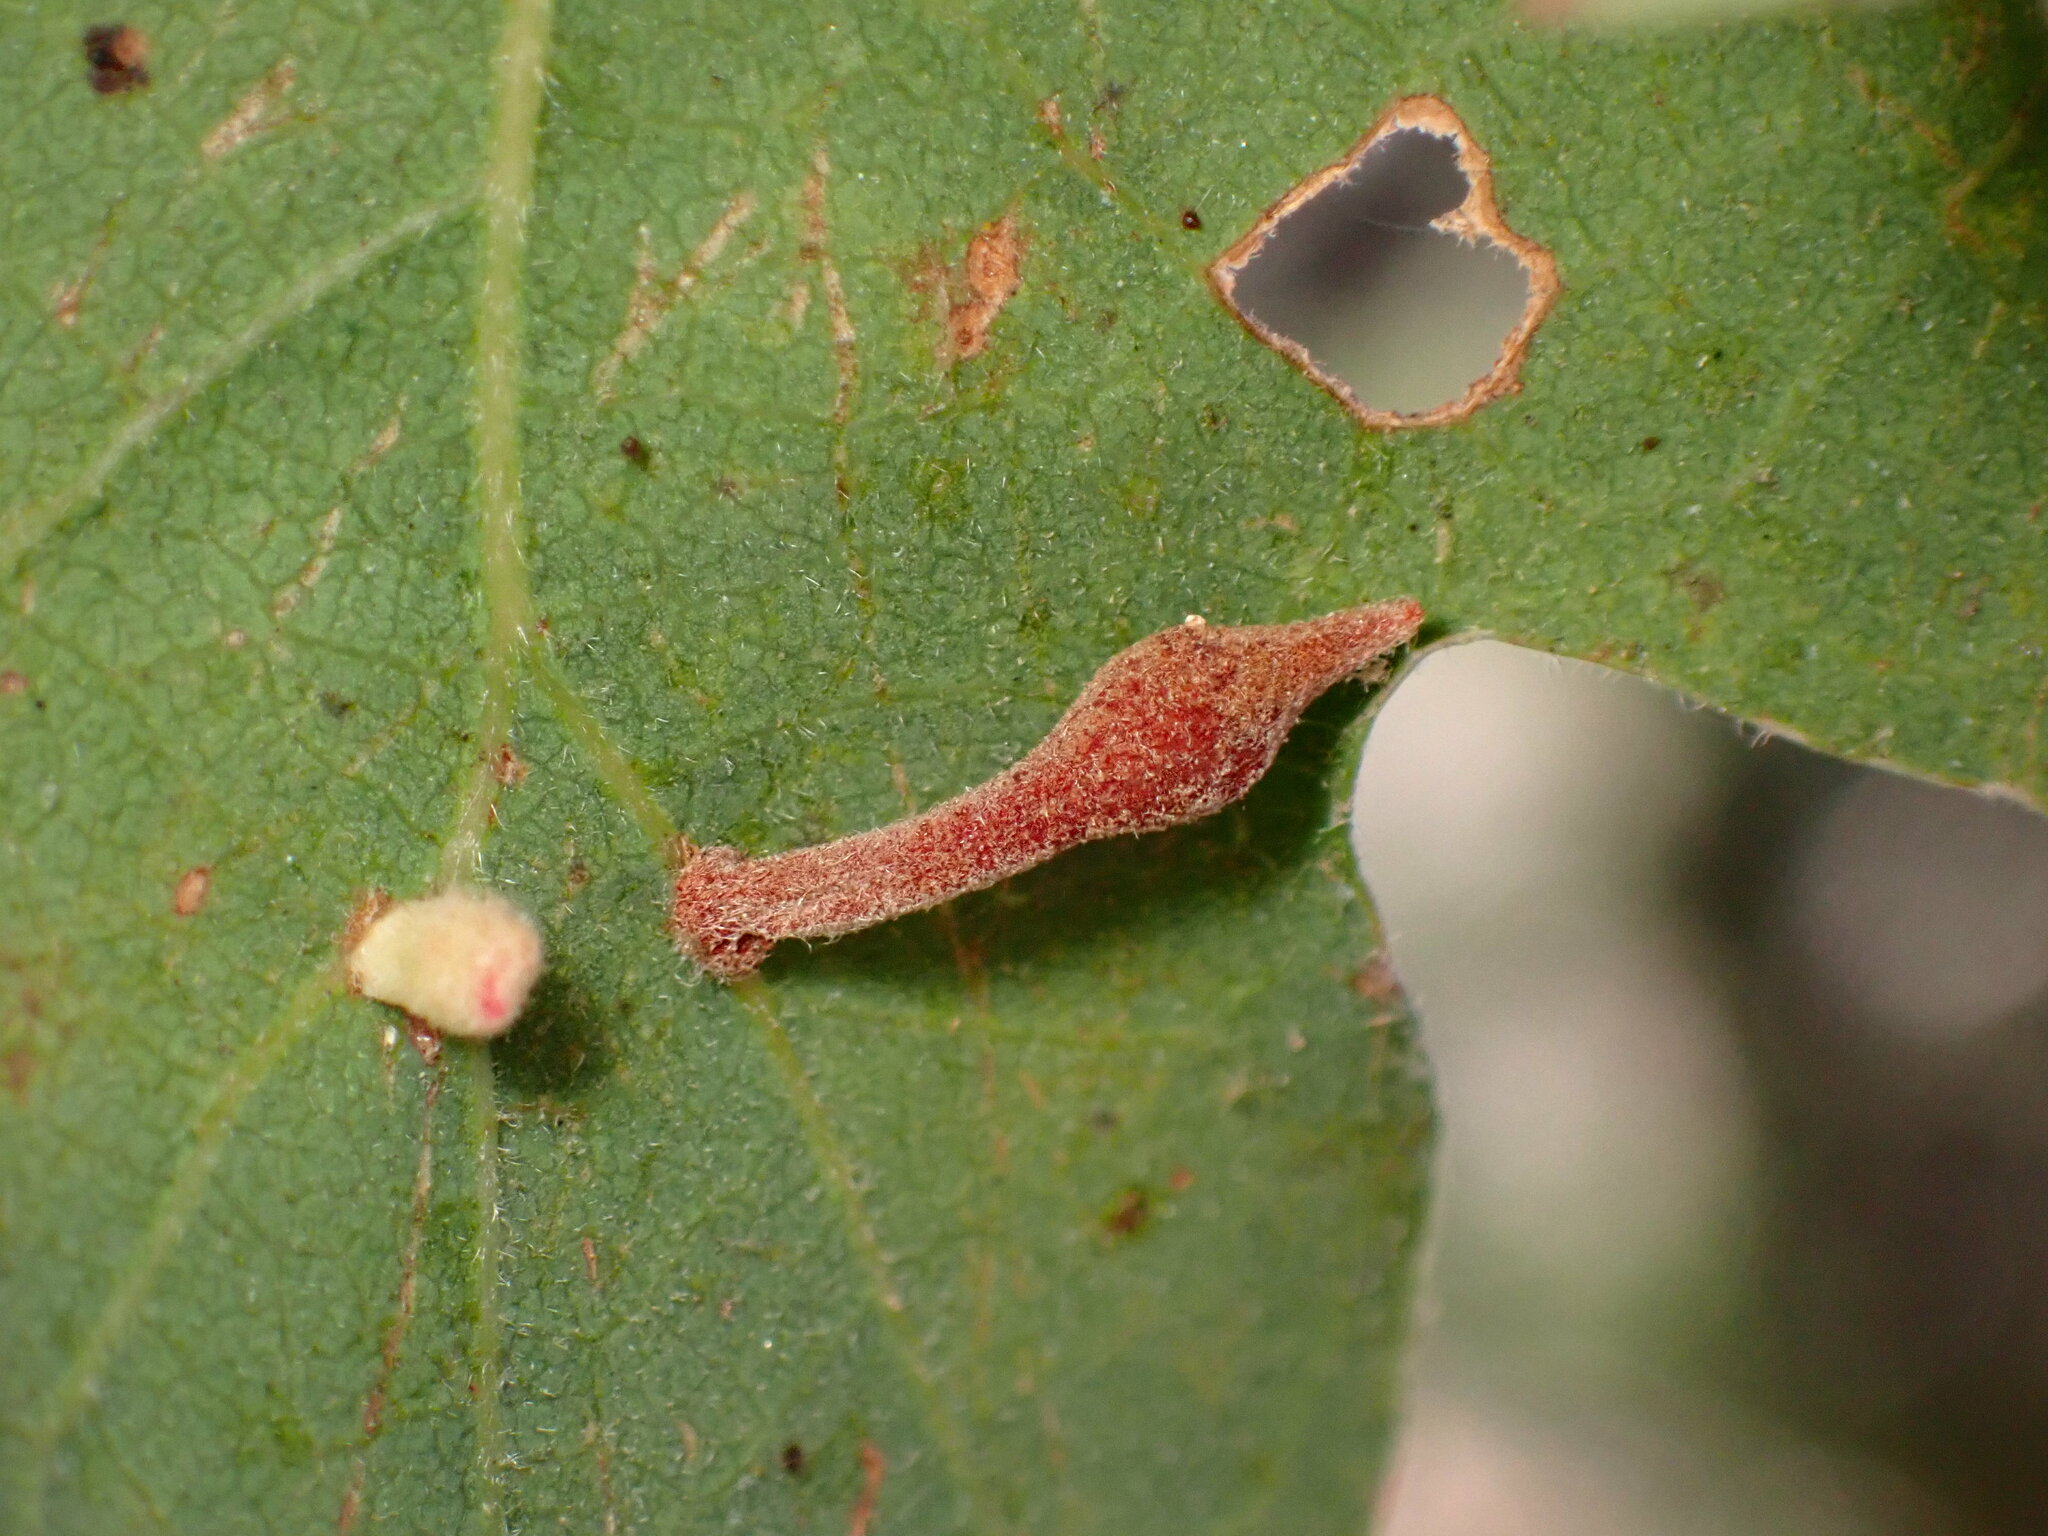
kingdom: Animalia
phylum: Arthropoda
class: Insecta
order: Hymenoptera
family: Cynipidae
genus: Atrusca
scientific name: Atrusca
